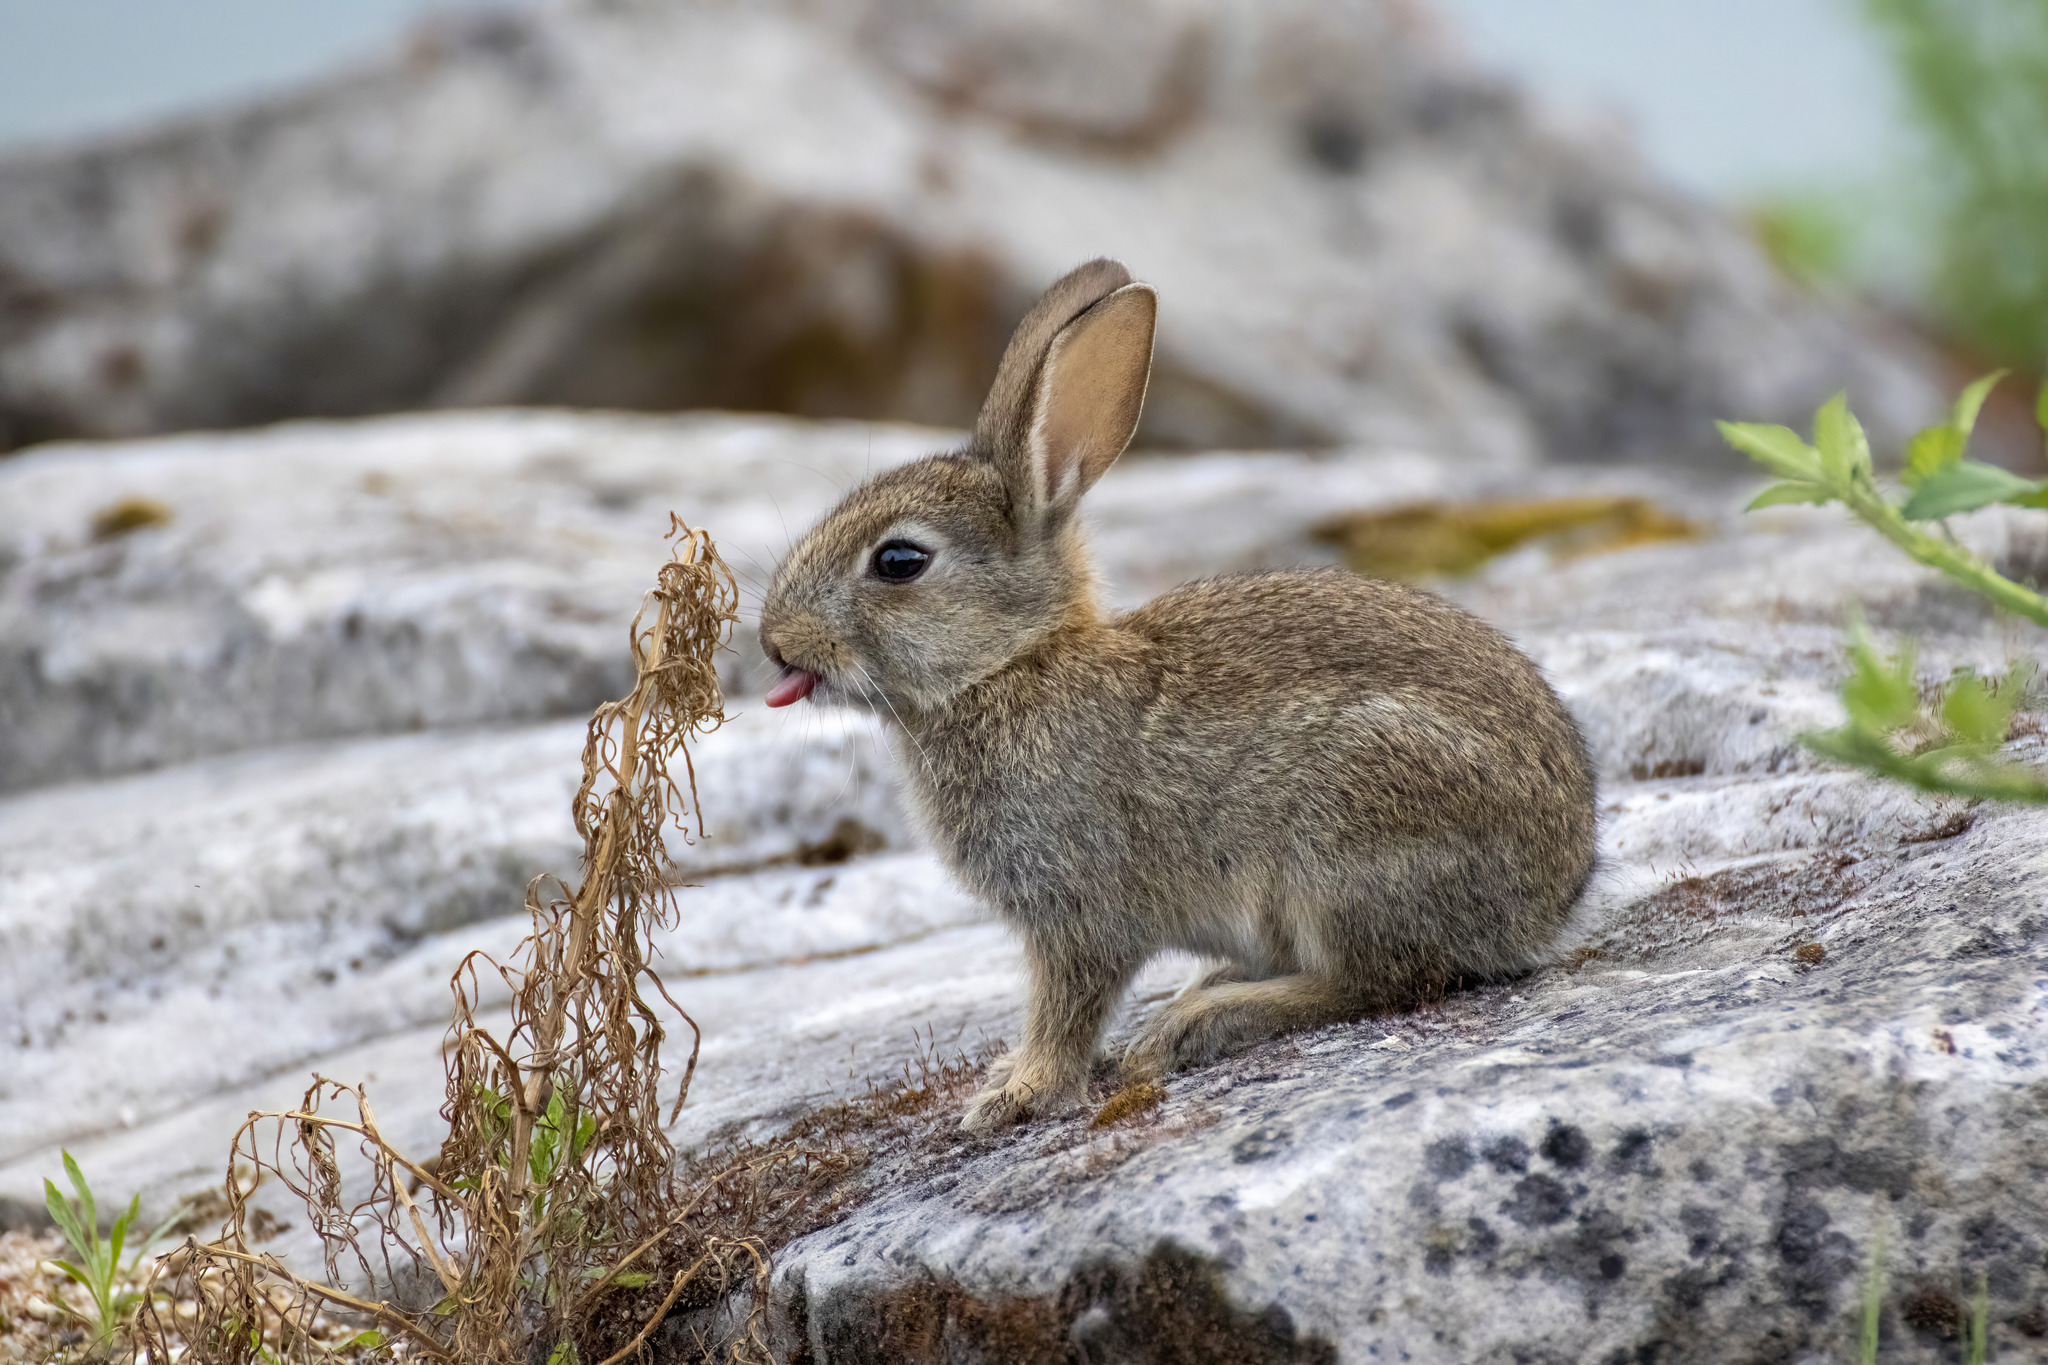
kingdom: Animalia
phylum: Chordata
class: Mammalia
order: Lagomorpha
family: Leporidae
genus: Oryctolagus
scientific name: Oryctolagus cuniculus
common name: European rabbit
